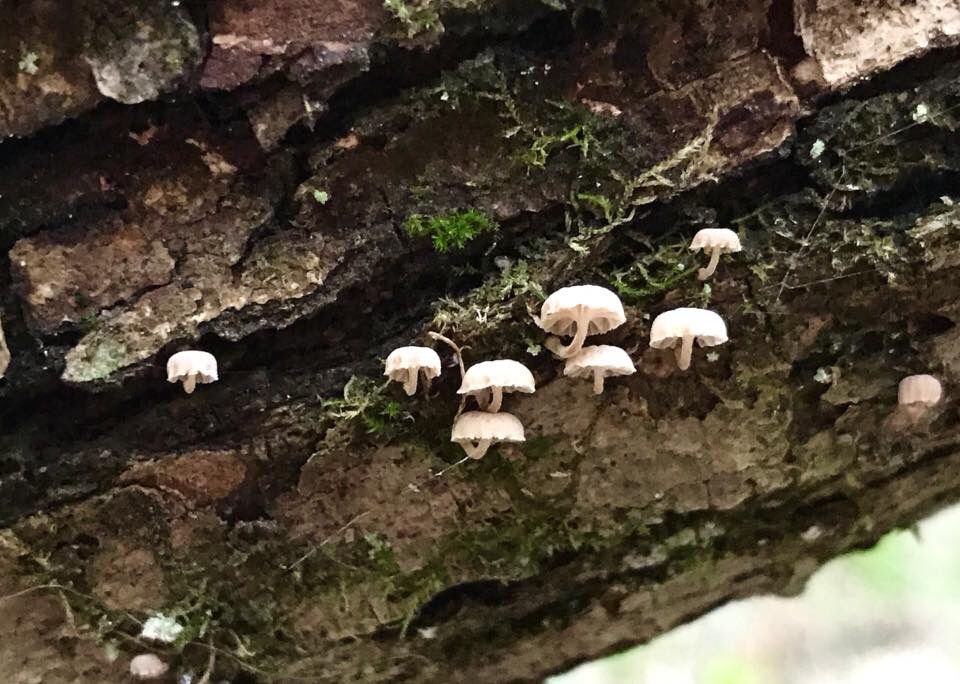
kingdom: Fungi
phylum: Basidiomycota
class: Agaricomycetes
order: Agaricales
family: Mycenaceae
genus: Mycena
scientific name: Mycena meliigena
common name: Mauve bonnet
